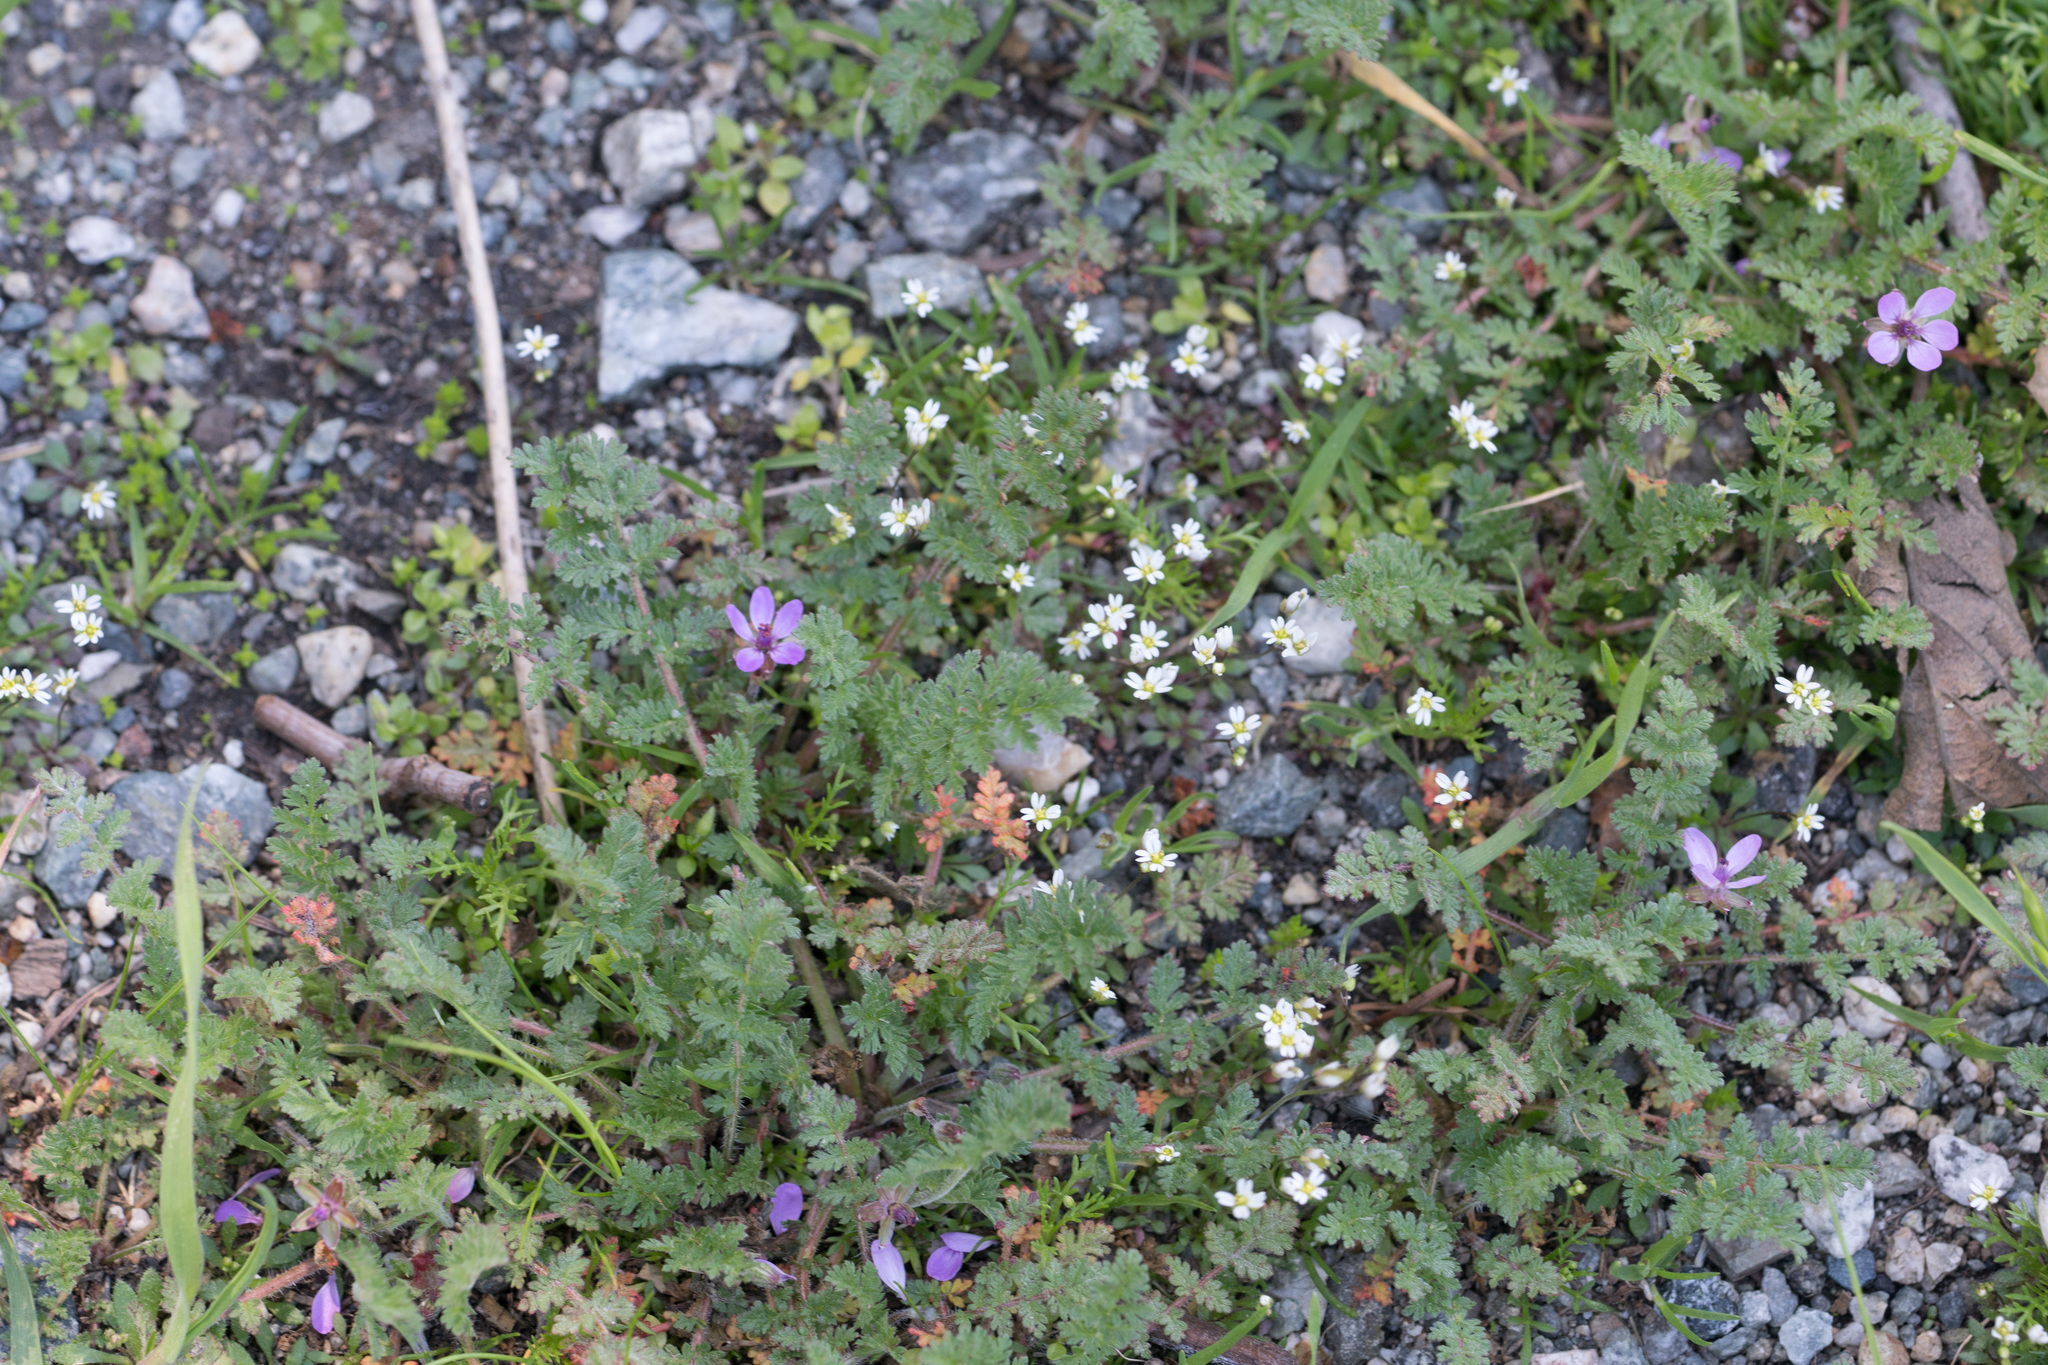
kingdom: Plantae
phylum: Tracheophyta
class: Magnoliopsida
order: Geraniales
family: Geraniaceae
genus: Erodium
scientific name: Erodium cicutarium
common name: Common stork's-bill
